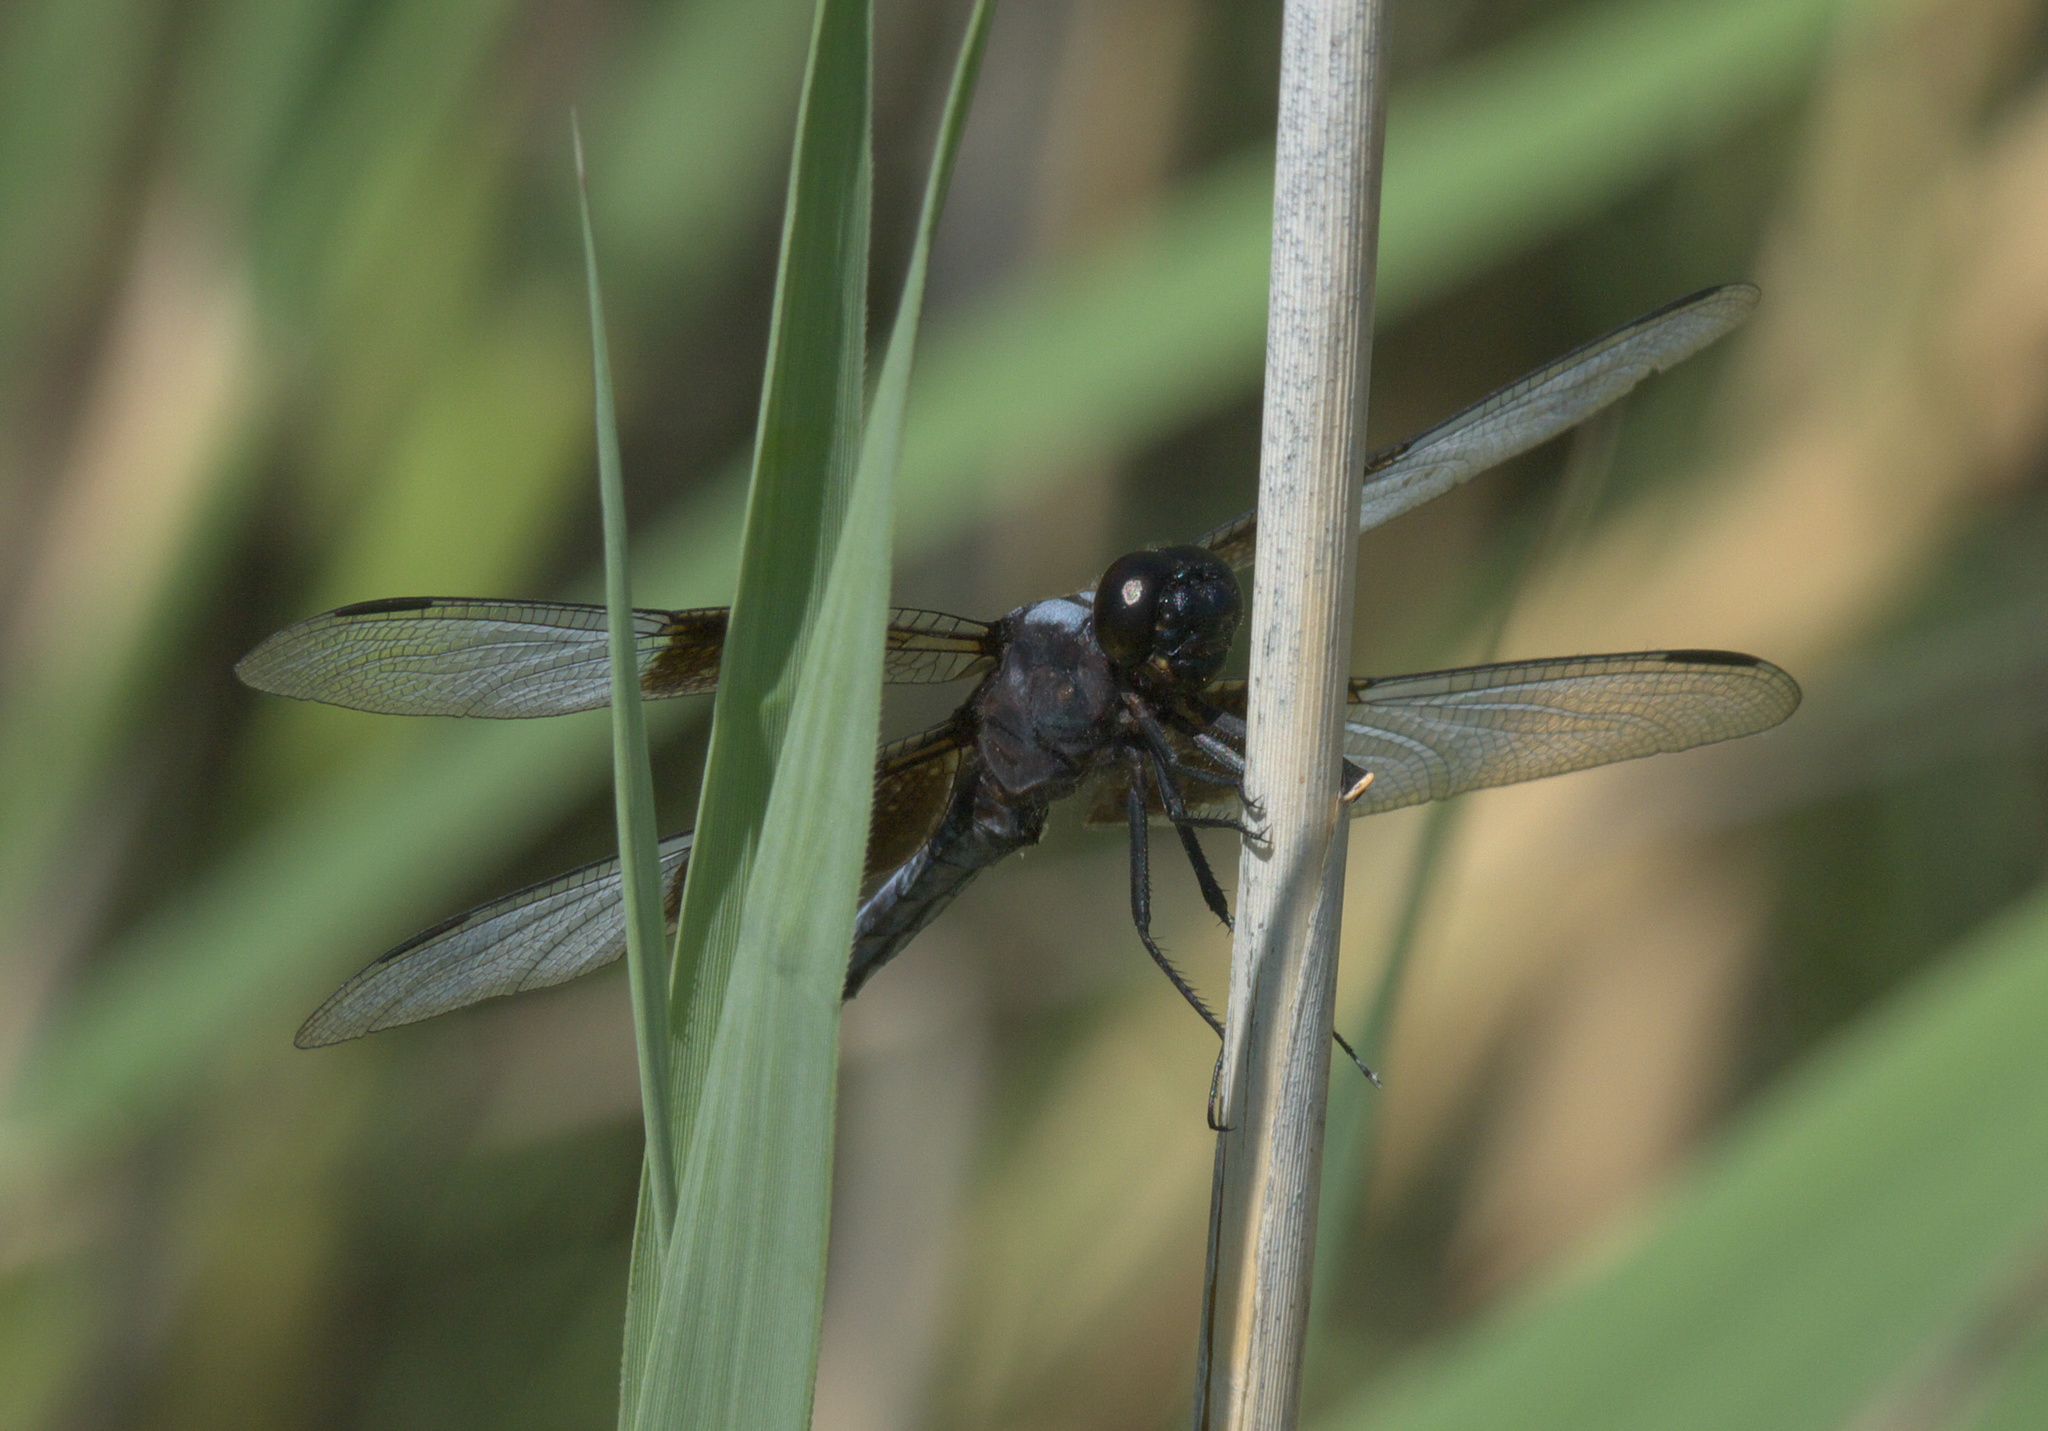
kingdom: Animalia
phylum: Arthropoda
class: Insecta
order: Odonata
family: Libellulidae
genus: Libellula
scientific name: Libellula luctuosa
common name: Widow skimmer
